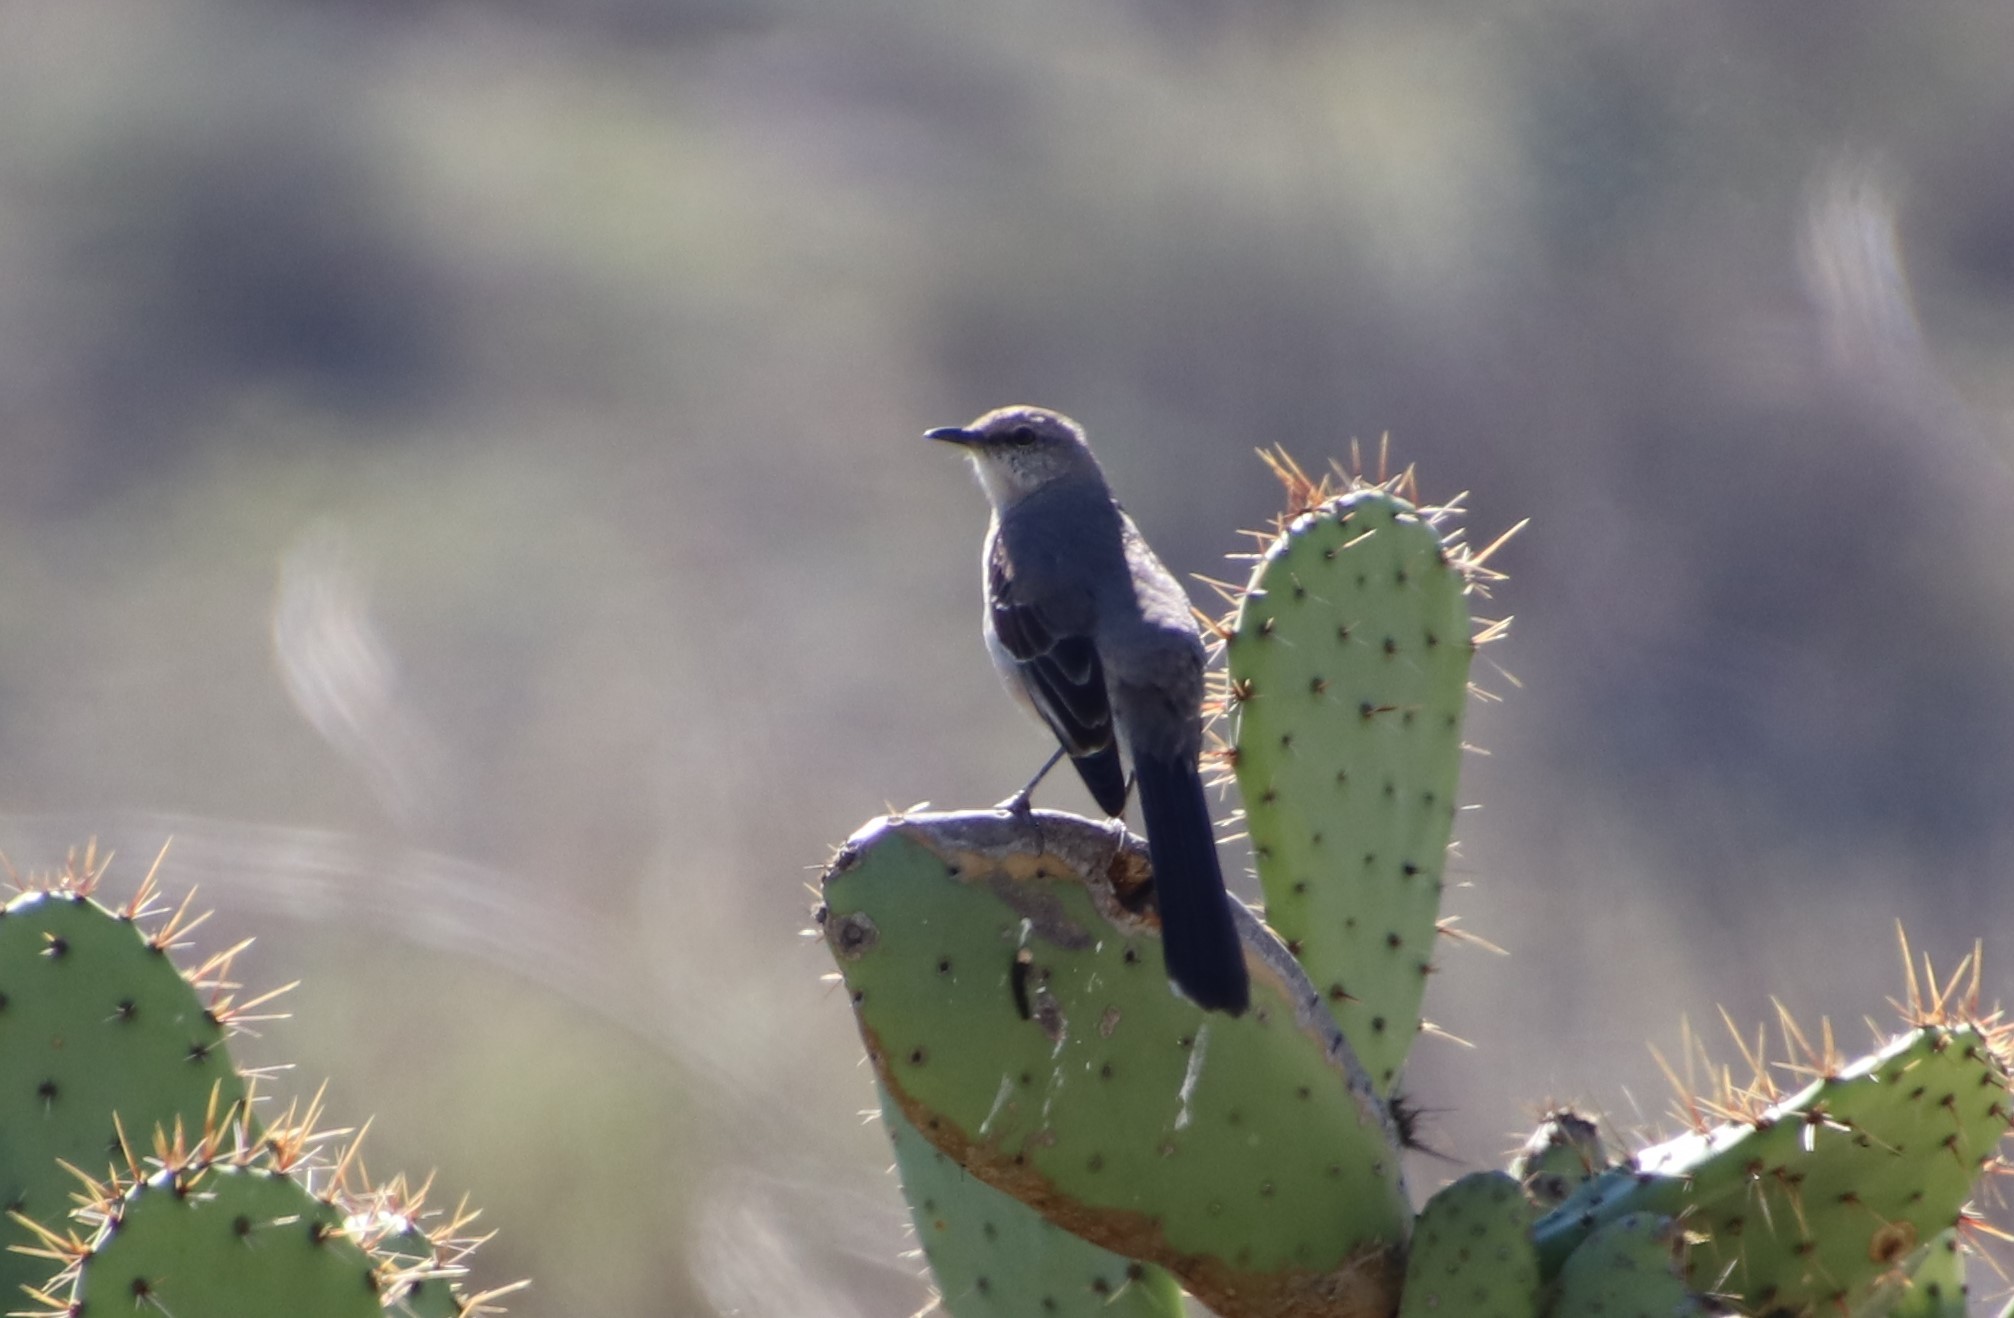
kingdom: Animalia
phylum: Chordata
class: Aves
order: Passeriformes
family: Mimidae
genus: Mimus
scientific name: Mimus polyglottos
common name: Northern mockingbird
